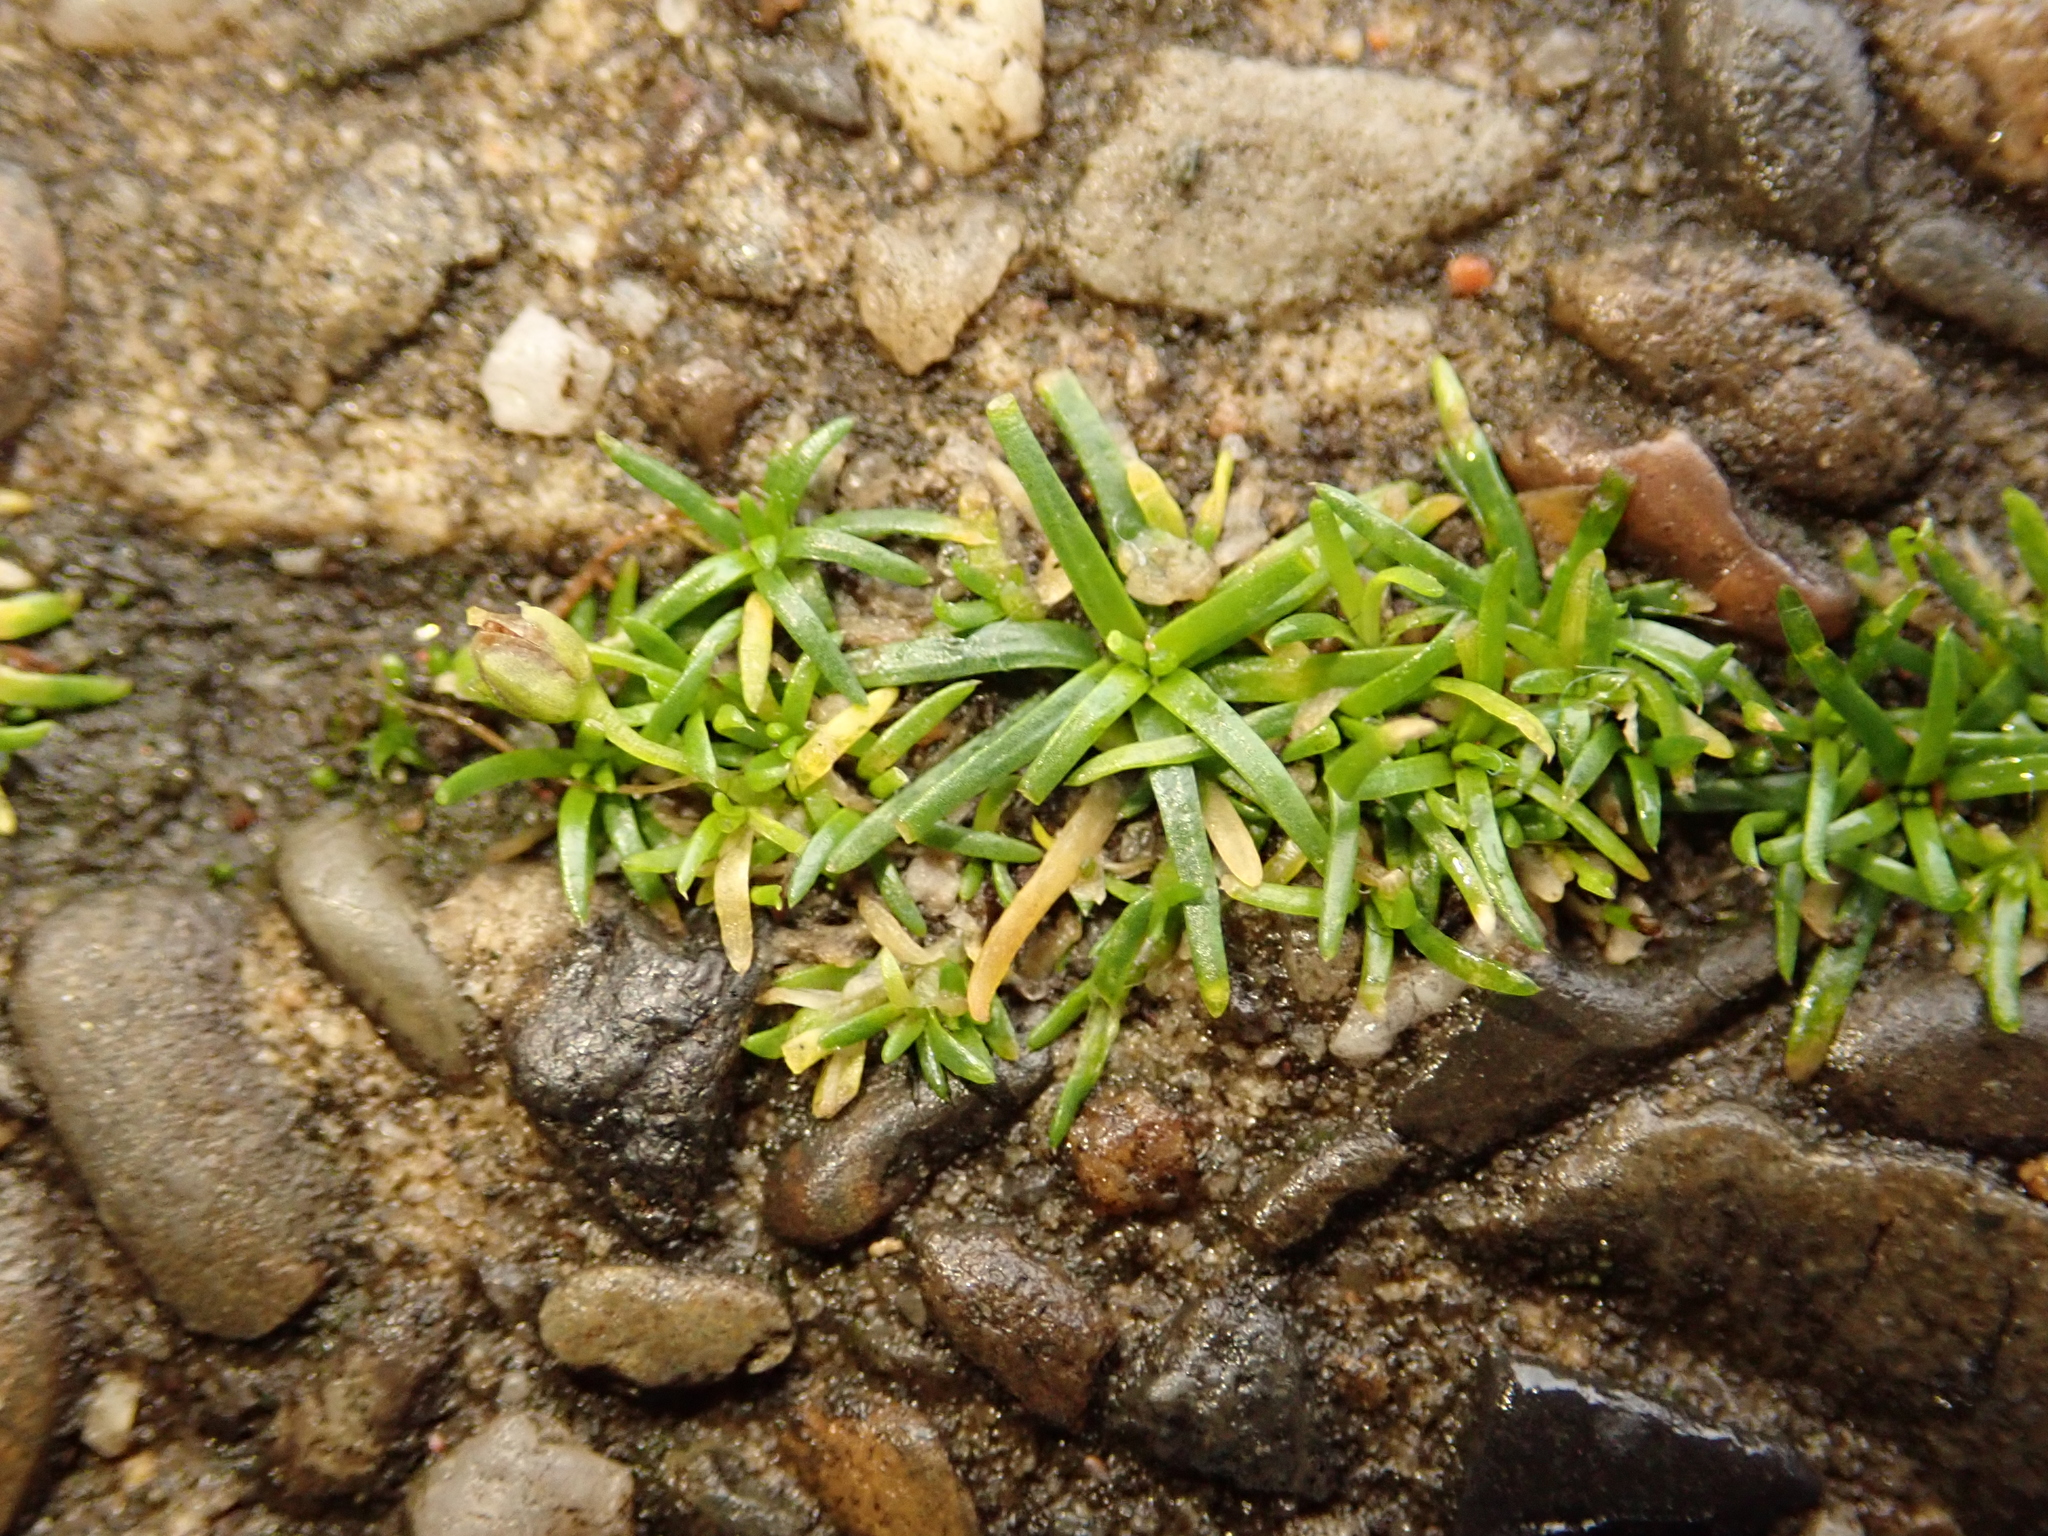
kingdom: Plantae
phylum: Tracheophyta
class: Magnoliopsida
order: Caryophyllales
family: Caryophyllaceae
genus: Sagina
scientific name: Sagina procumbens
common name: Procumbent pearlwort
